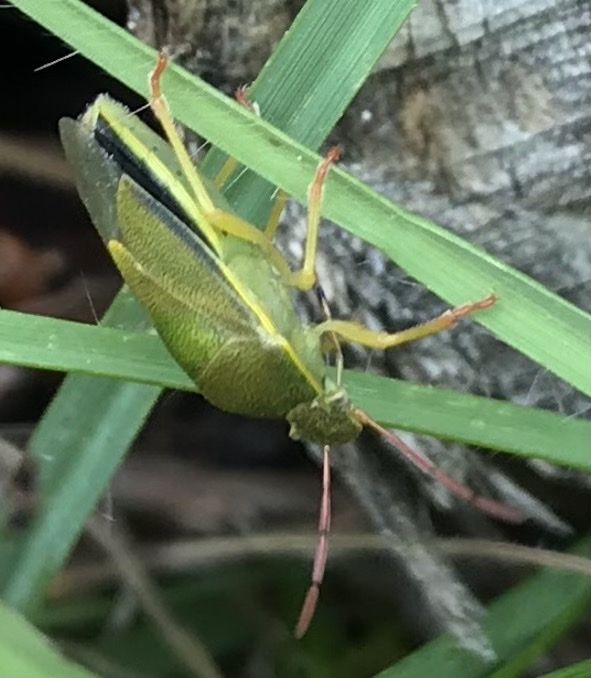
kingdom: Animalia
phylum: Arthropoda
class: Insecta
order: Hemiptera
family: Pentatomidae
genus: Piezodorus
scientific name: Piezodorus lituratus
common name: Stink bug
